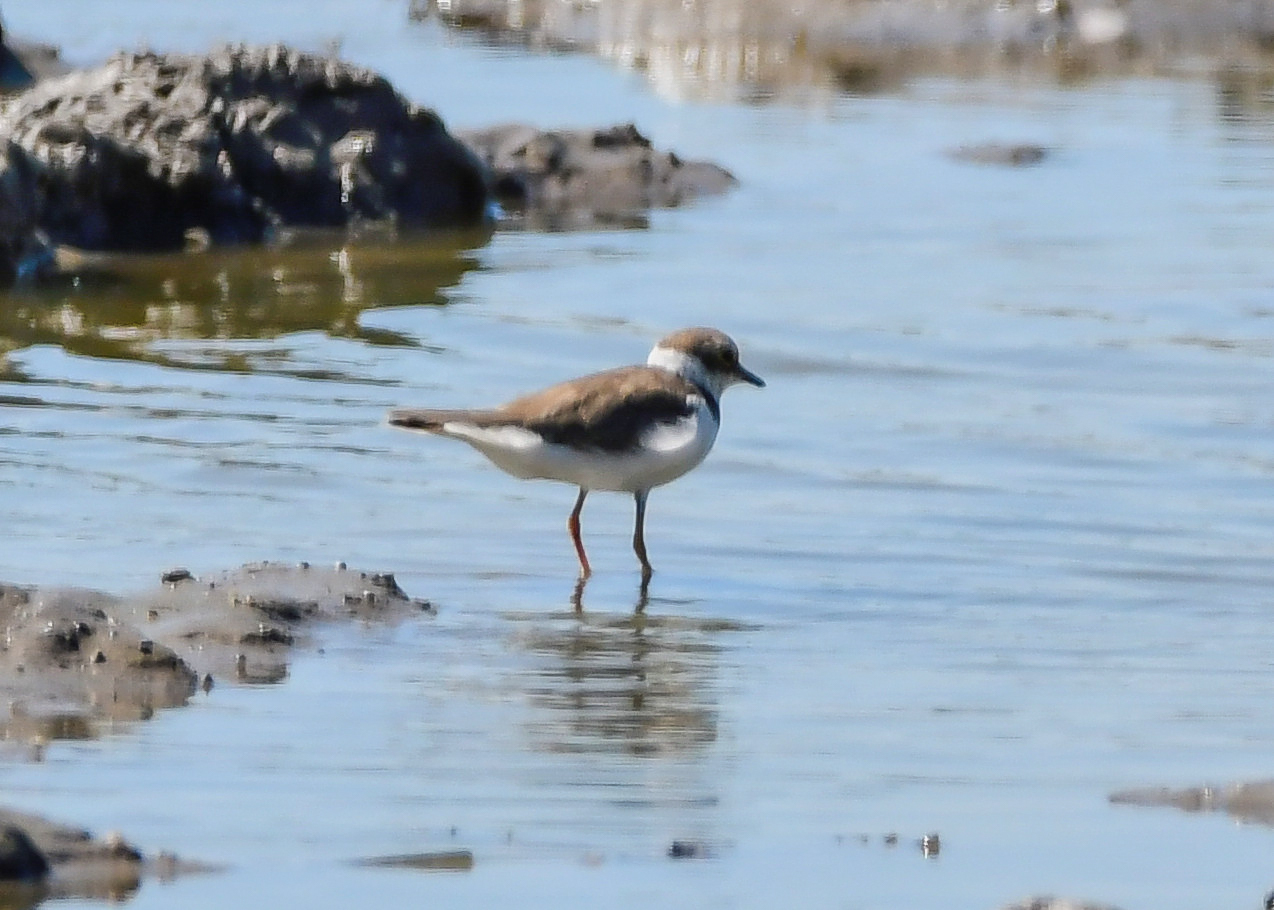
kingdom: Animalia
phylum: Chordata
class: Aves
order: Charadriiformes
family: Charadriidae
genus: Charadrius
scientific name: Charadrius dubius
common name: Little ringed plover
